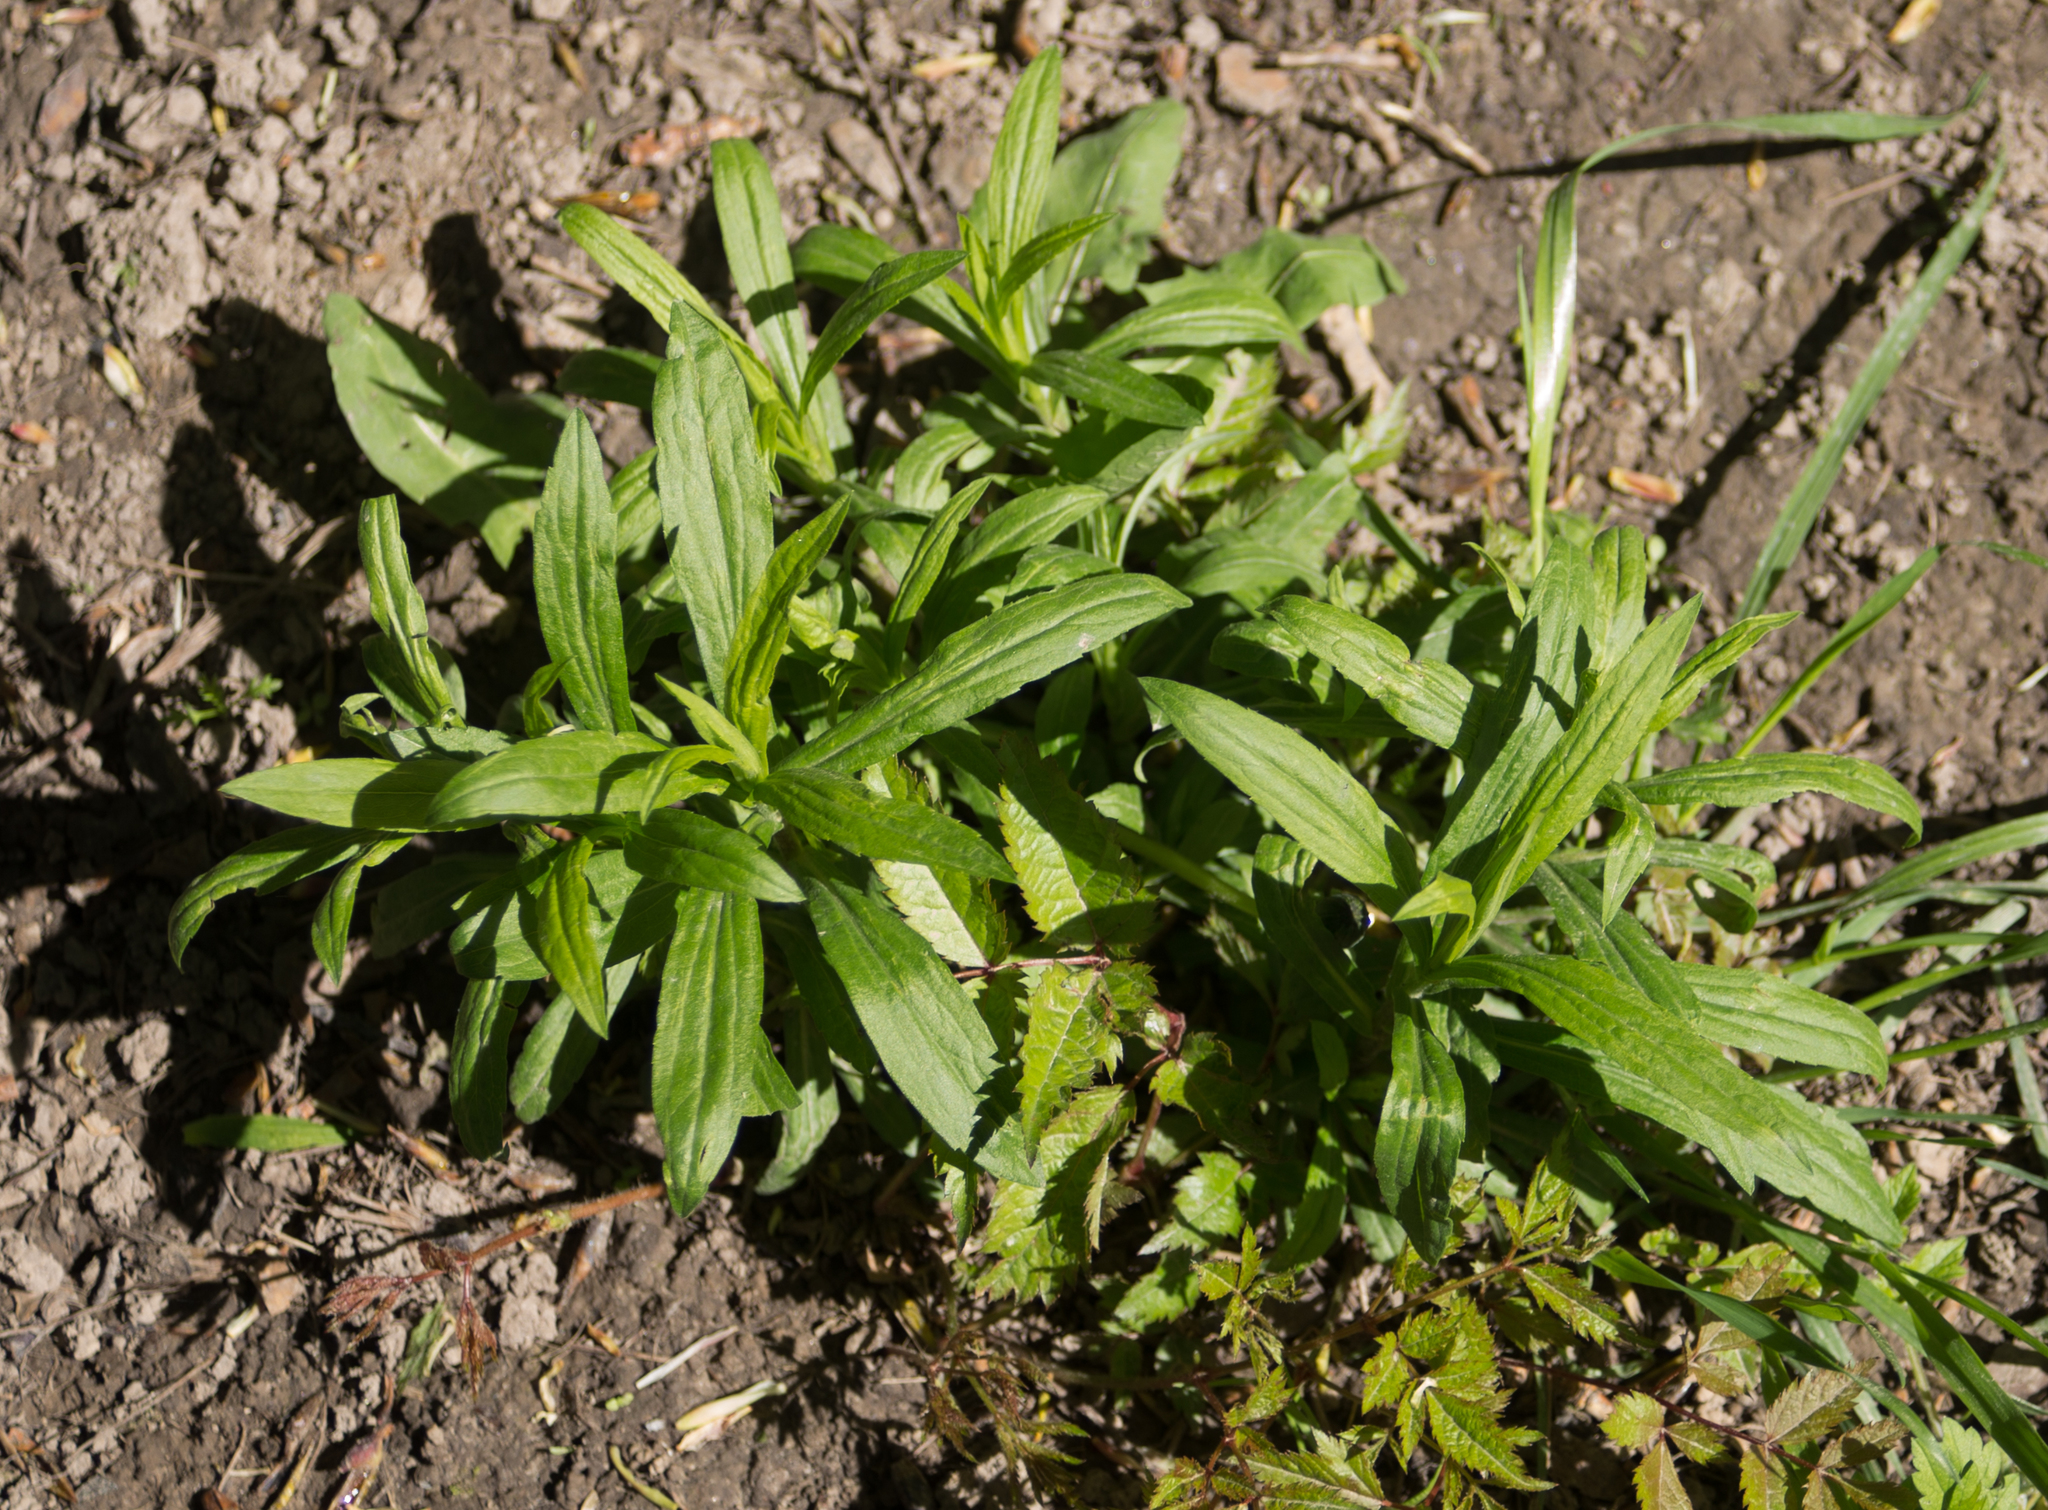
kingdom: Plantae
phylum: Tracheophyta
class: Magnoliopsida
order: Asterales
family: Asteraceae
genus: Solidago
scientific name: Solidago canadensis
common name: Canada goldenrod
